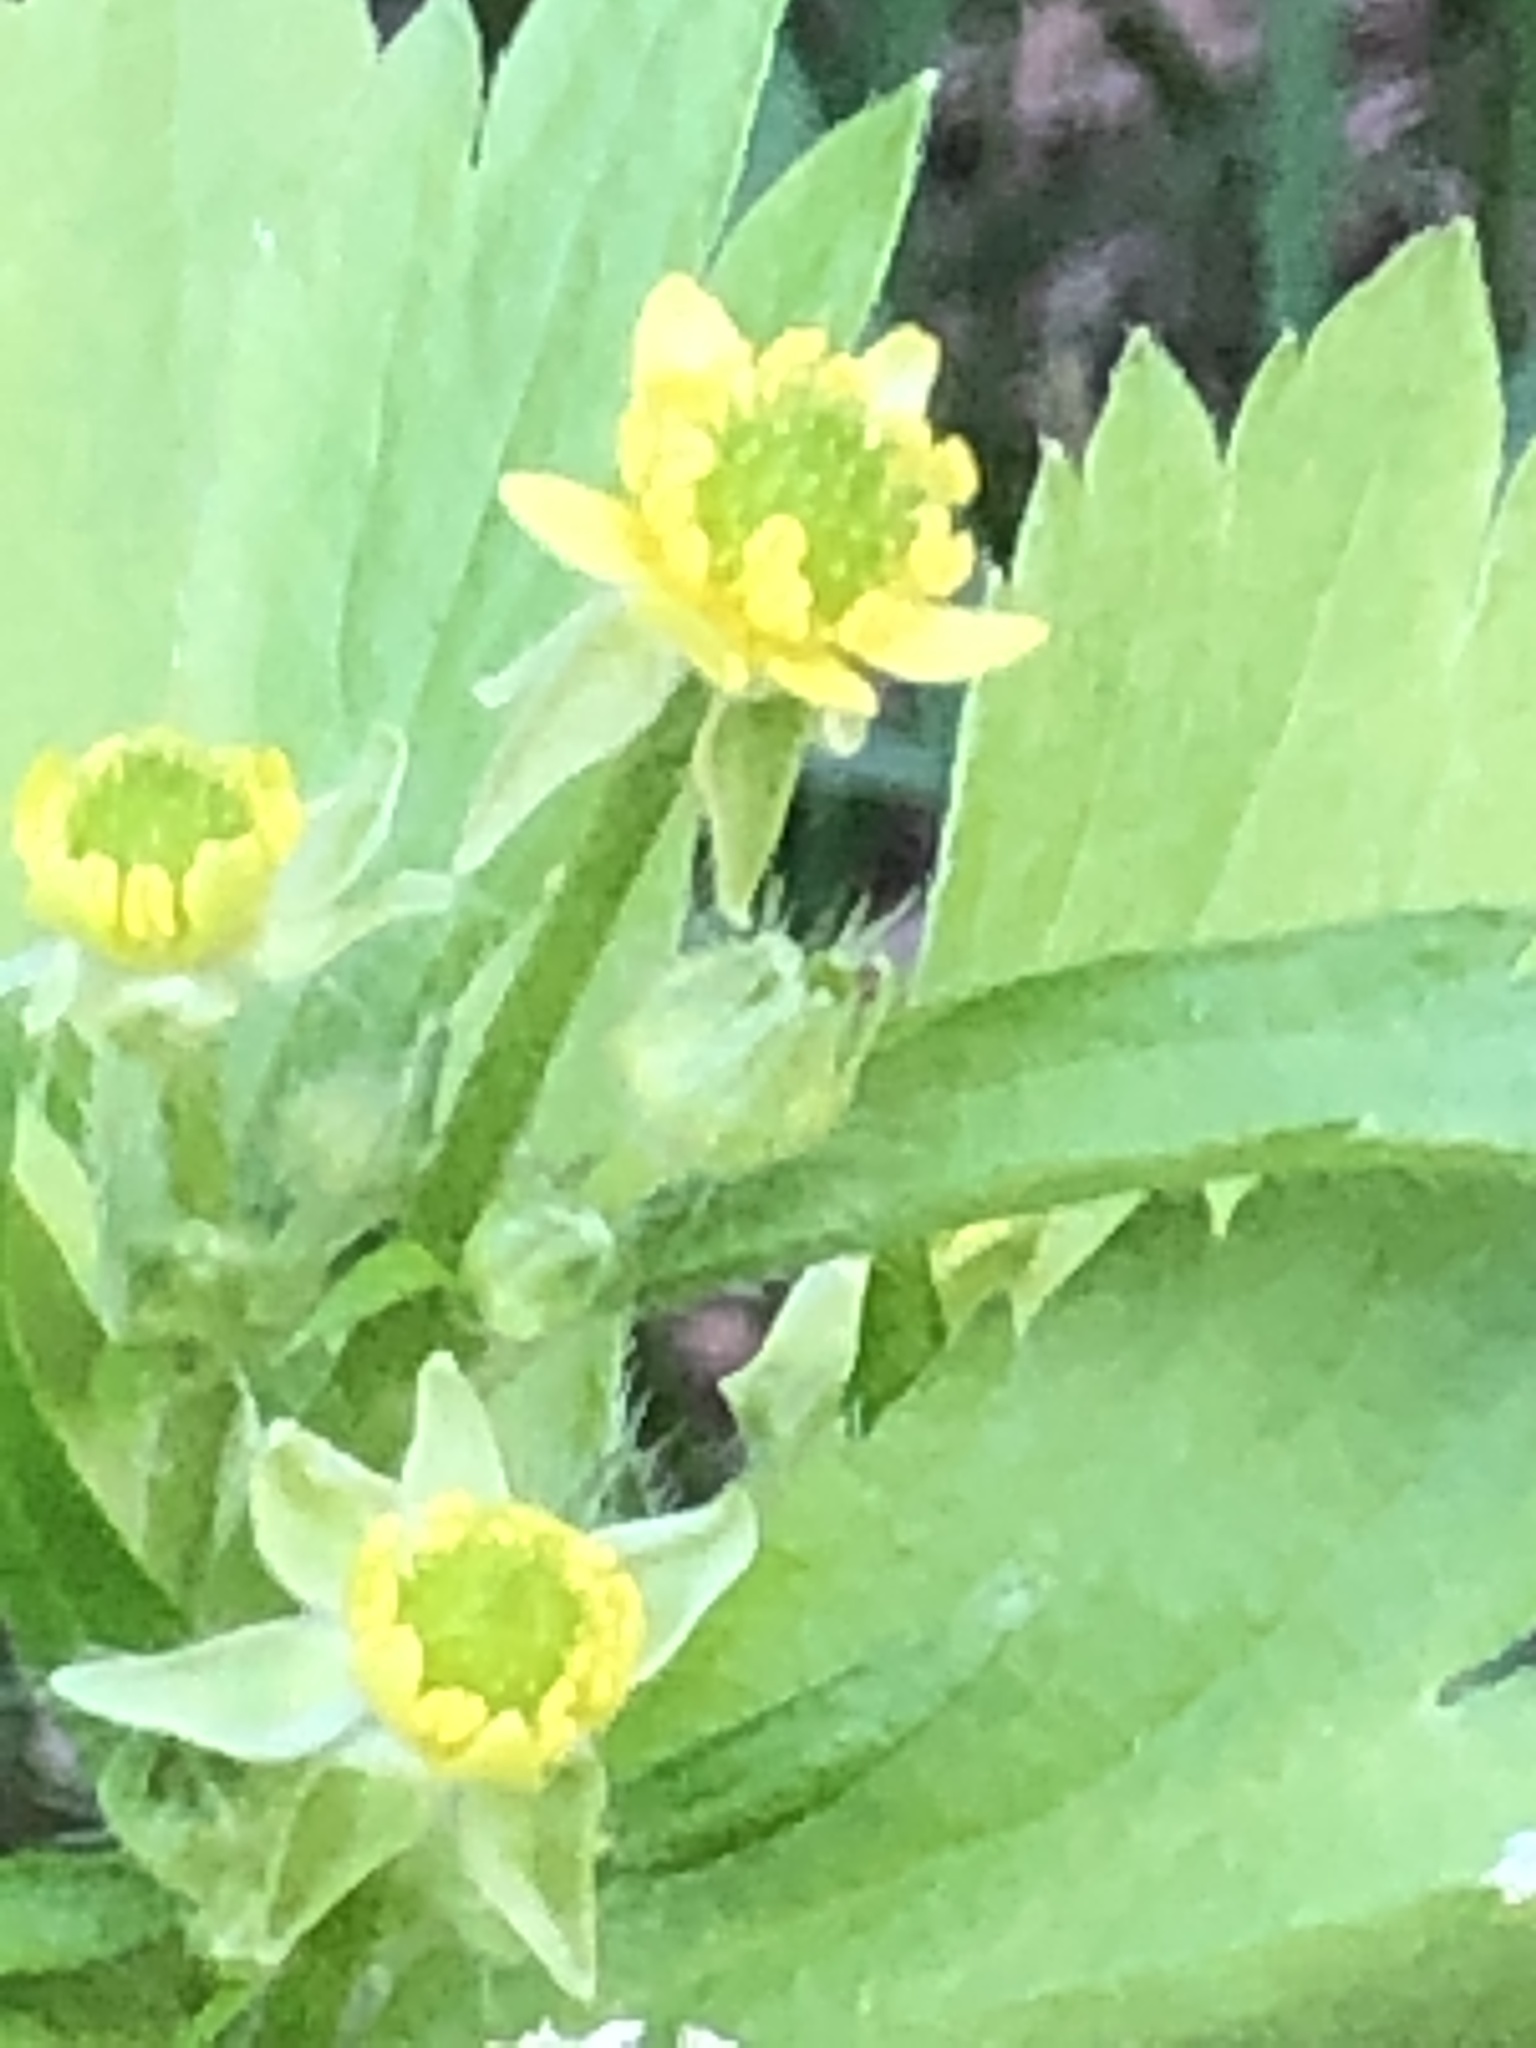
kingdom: Plantae
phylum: Tracheophyta
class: Magnoliopsida
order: Ranunculales
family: Ranunculaceae
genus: Ranunculus
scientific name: Ranunculus recurvatus
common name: Blisterwort
